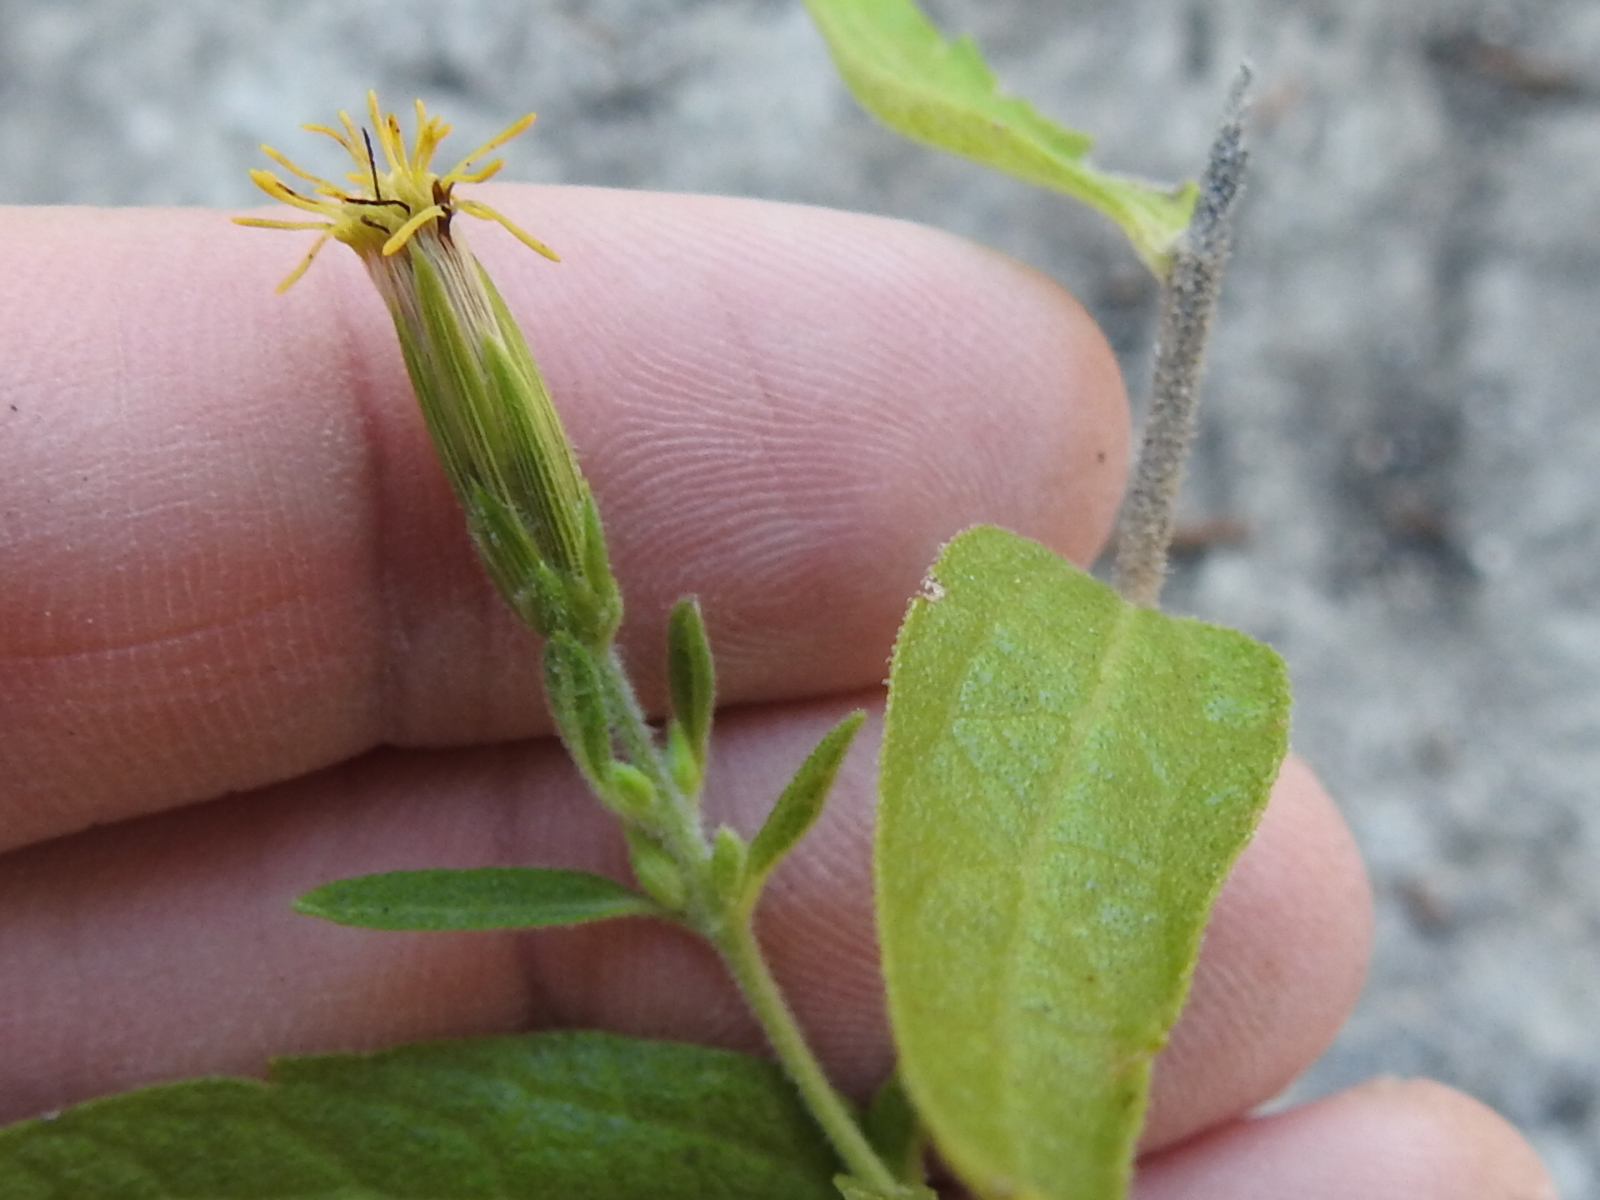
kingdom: Plantae
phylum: Tracheophyta
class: Magnoliopsida
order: Asterales
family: Asteraceae
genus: Brickellia
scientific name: Brickellia cylindracea
